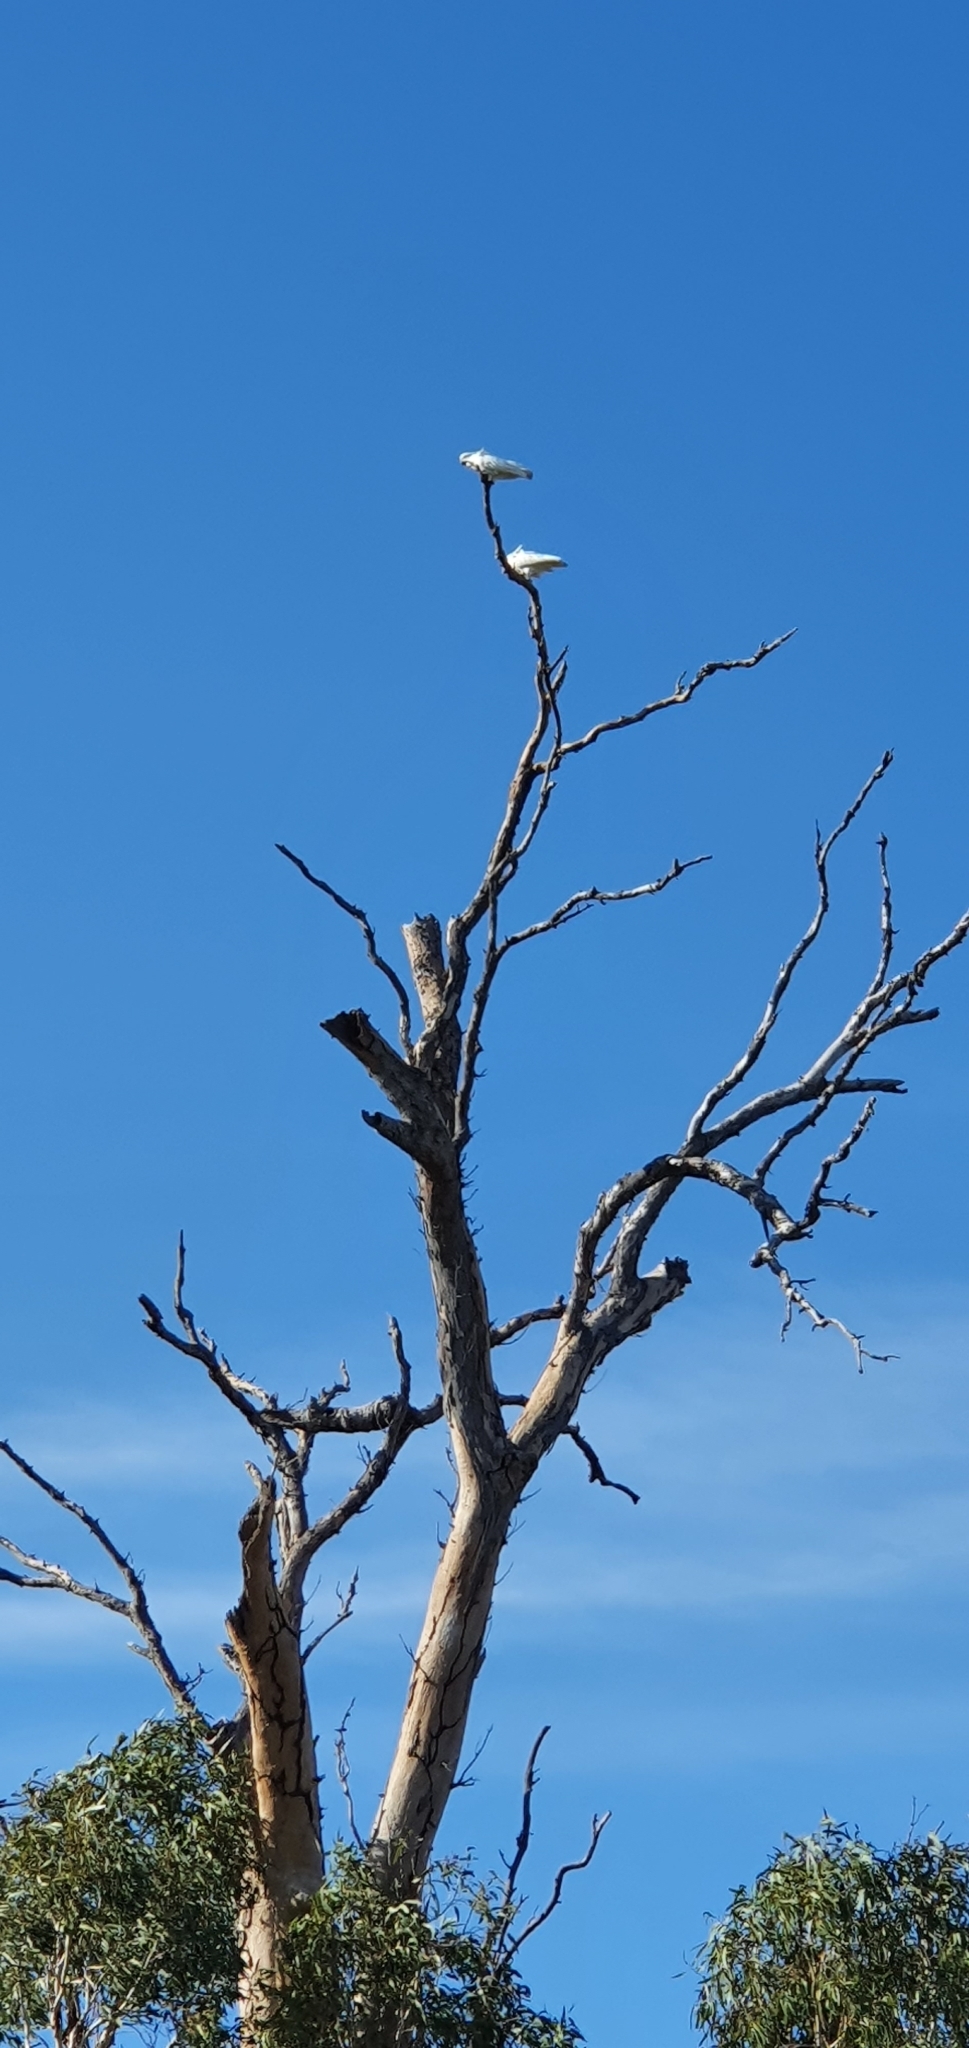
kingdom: Animalia
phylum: Chordata
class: Aves
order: Psittaciformes
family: Psittacidae
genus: Cacatua
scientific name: Cacatua galerita
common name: Sulphur-crested cockatoo
